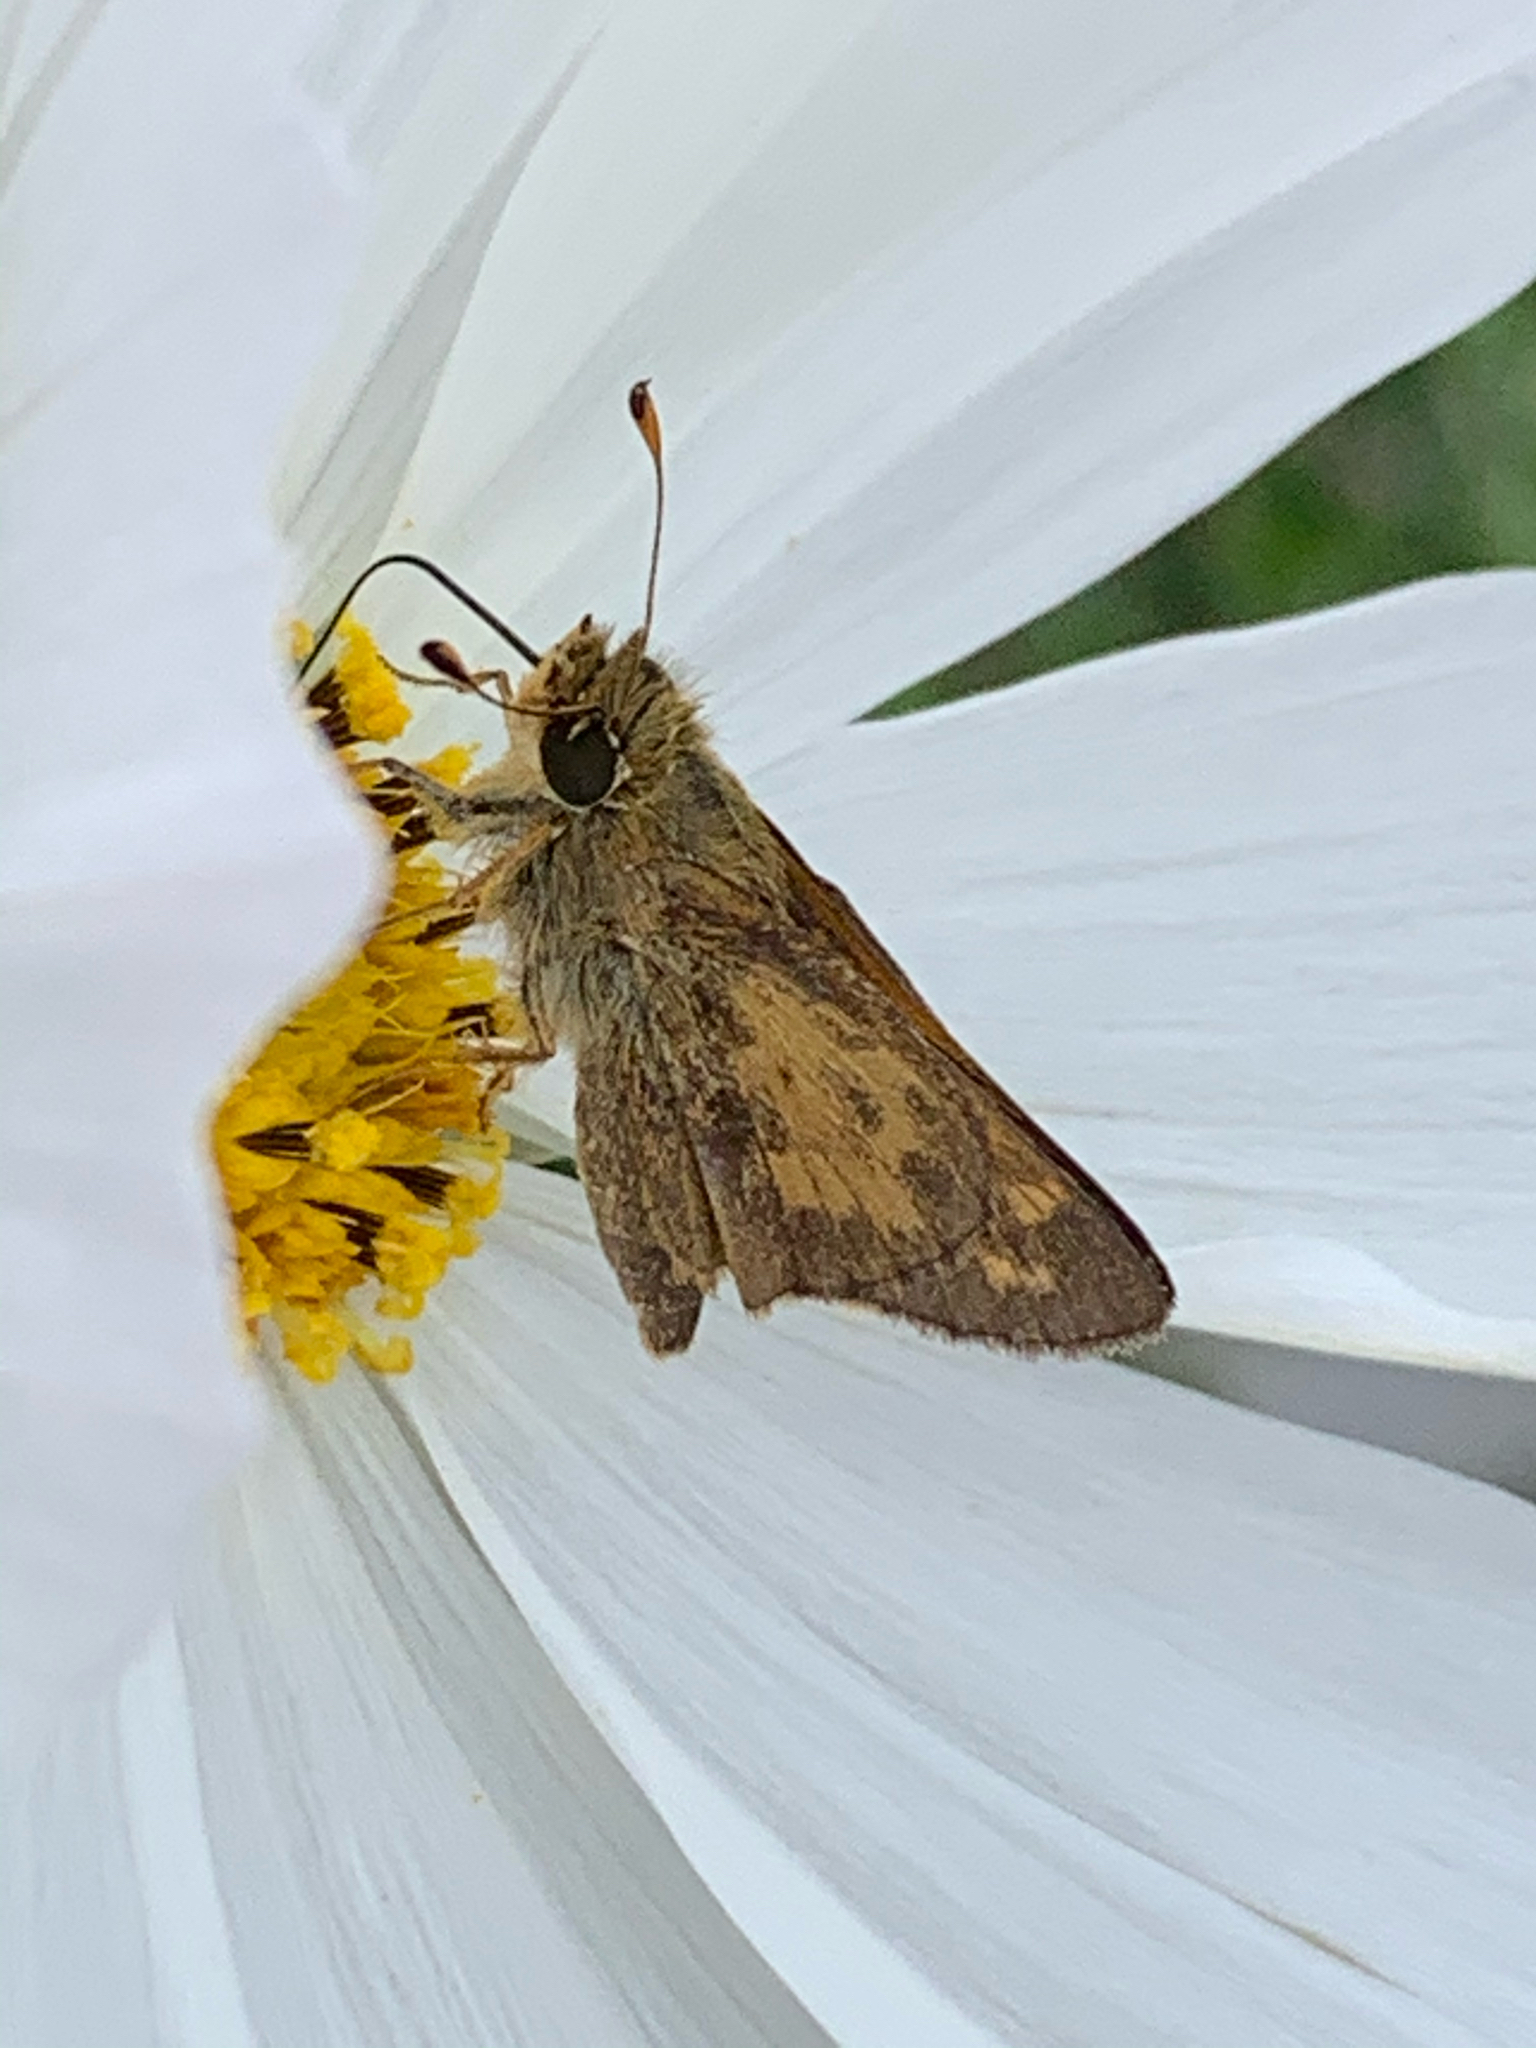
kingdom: Animalia
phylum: Arthropoda
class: Insecta
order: Lepidoptera
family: Hesperiidae
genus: Atalopedes
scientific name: Atalopedes
